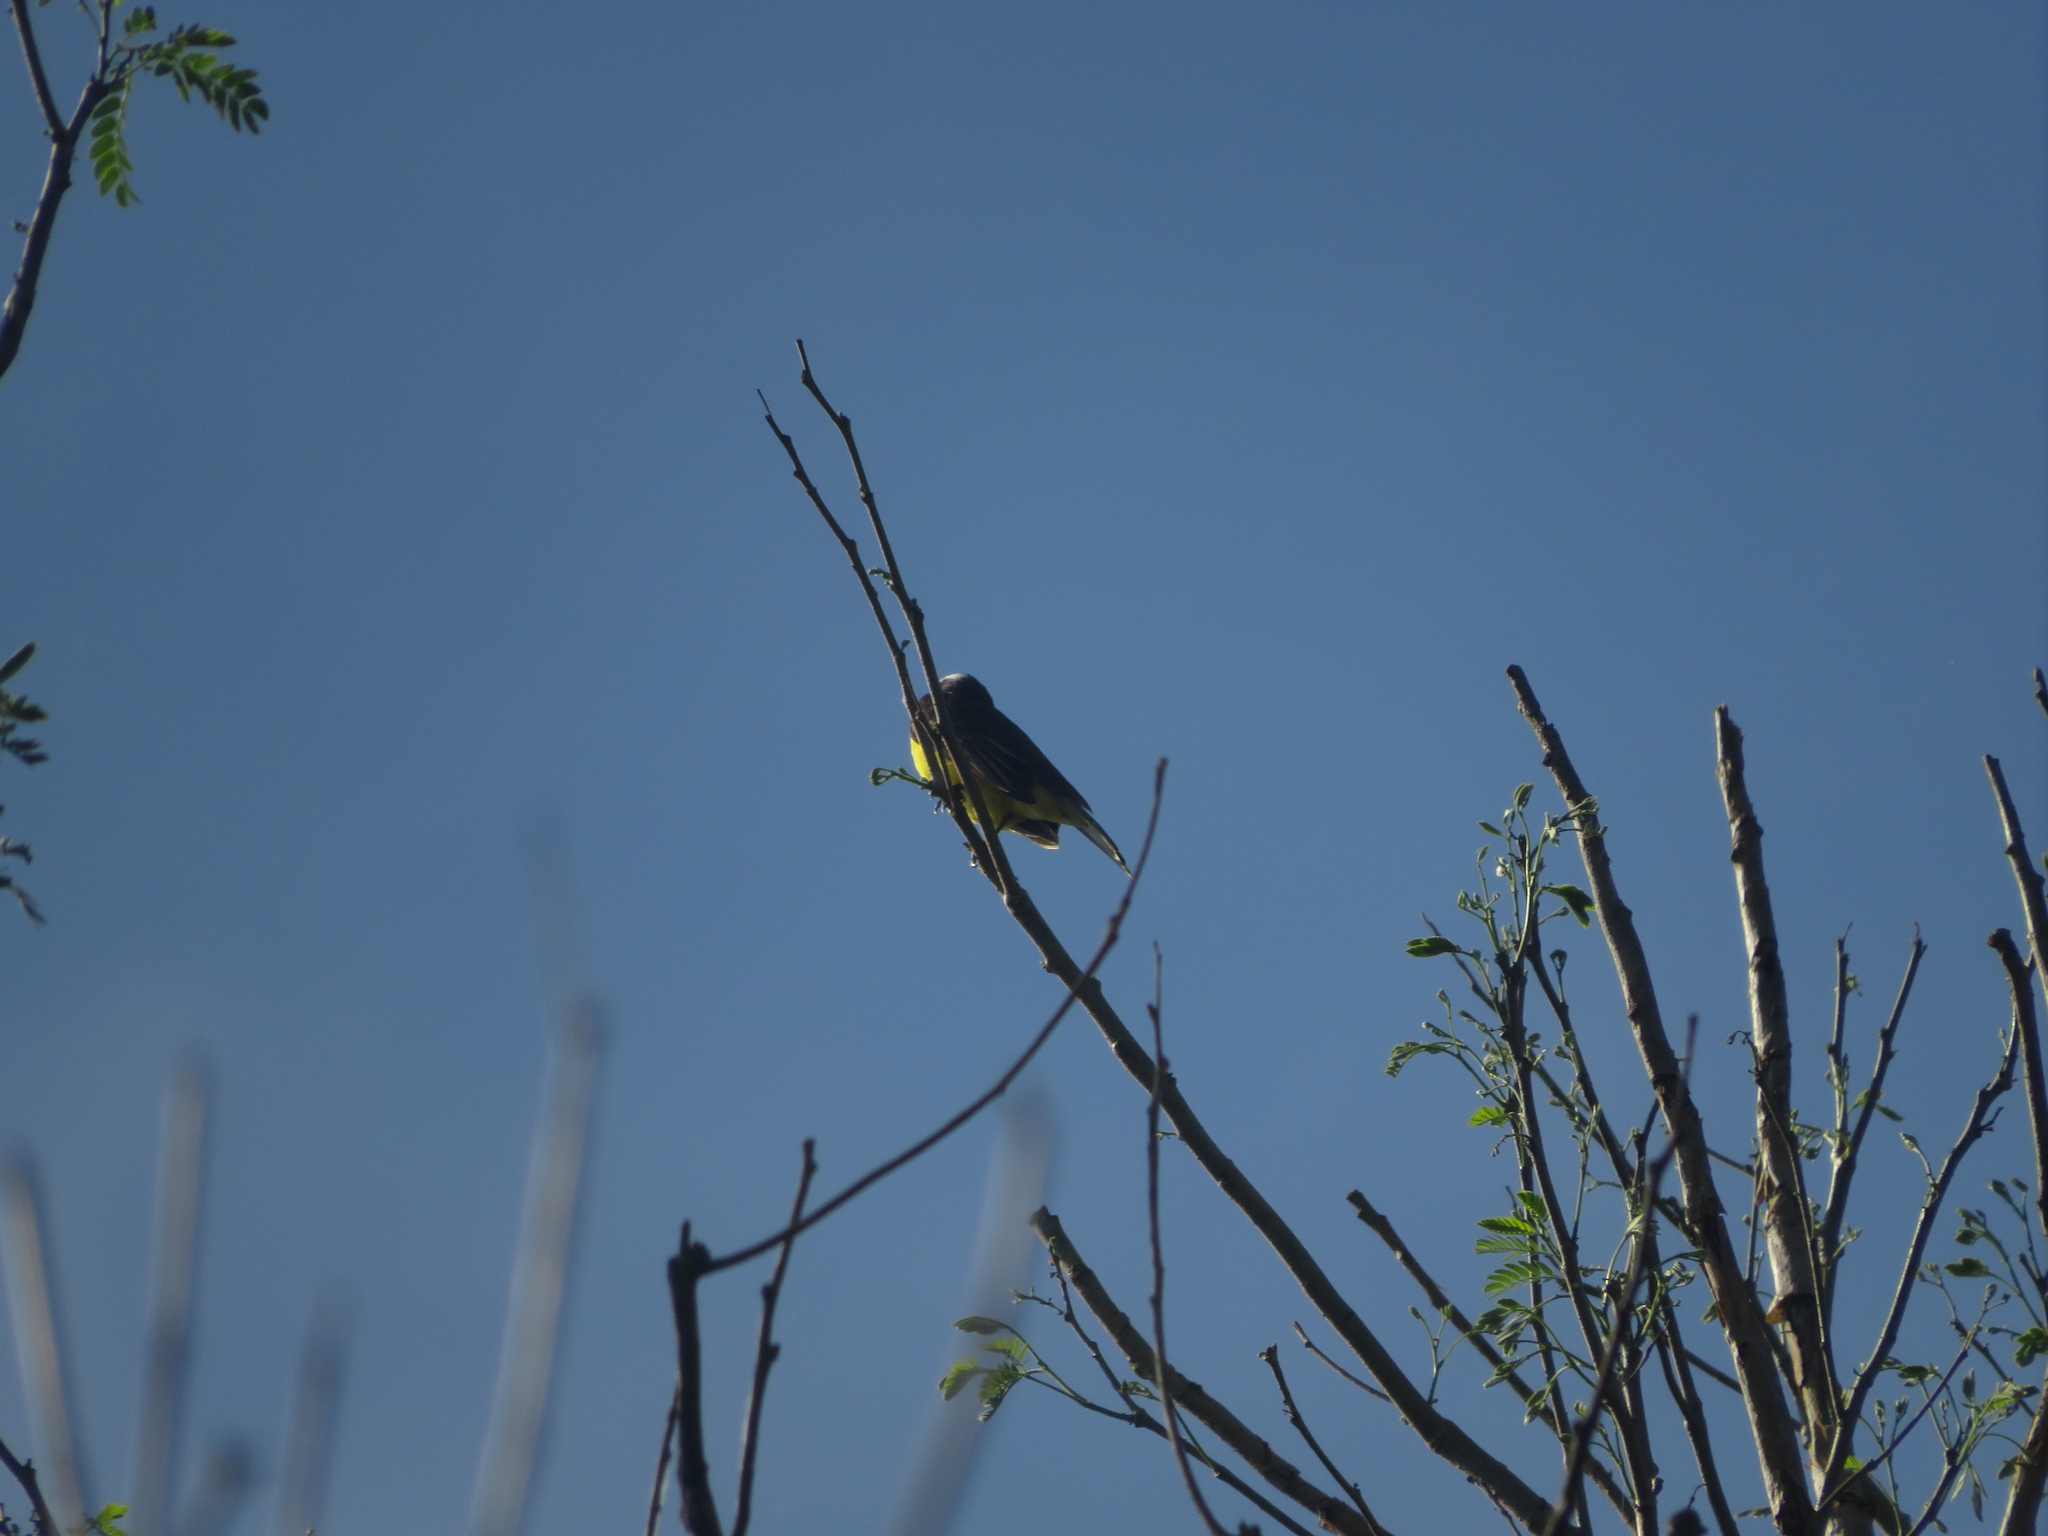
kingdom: Animalia
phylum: Chordata
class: Aves
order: Passeriformes
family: Tyrannidae
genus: Myiozetetes
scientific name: Myiozetetes similis
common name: Social flycatcher
